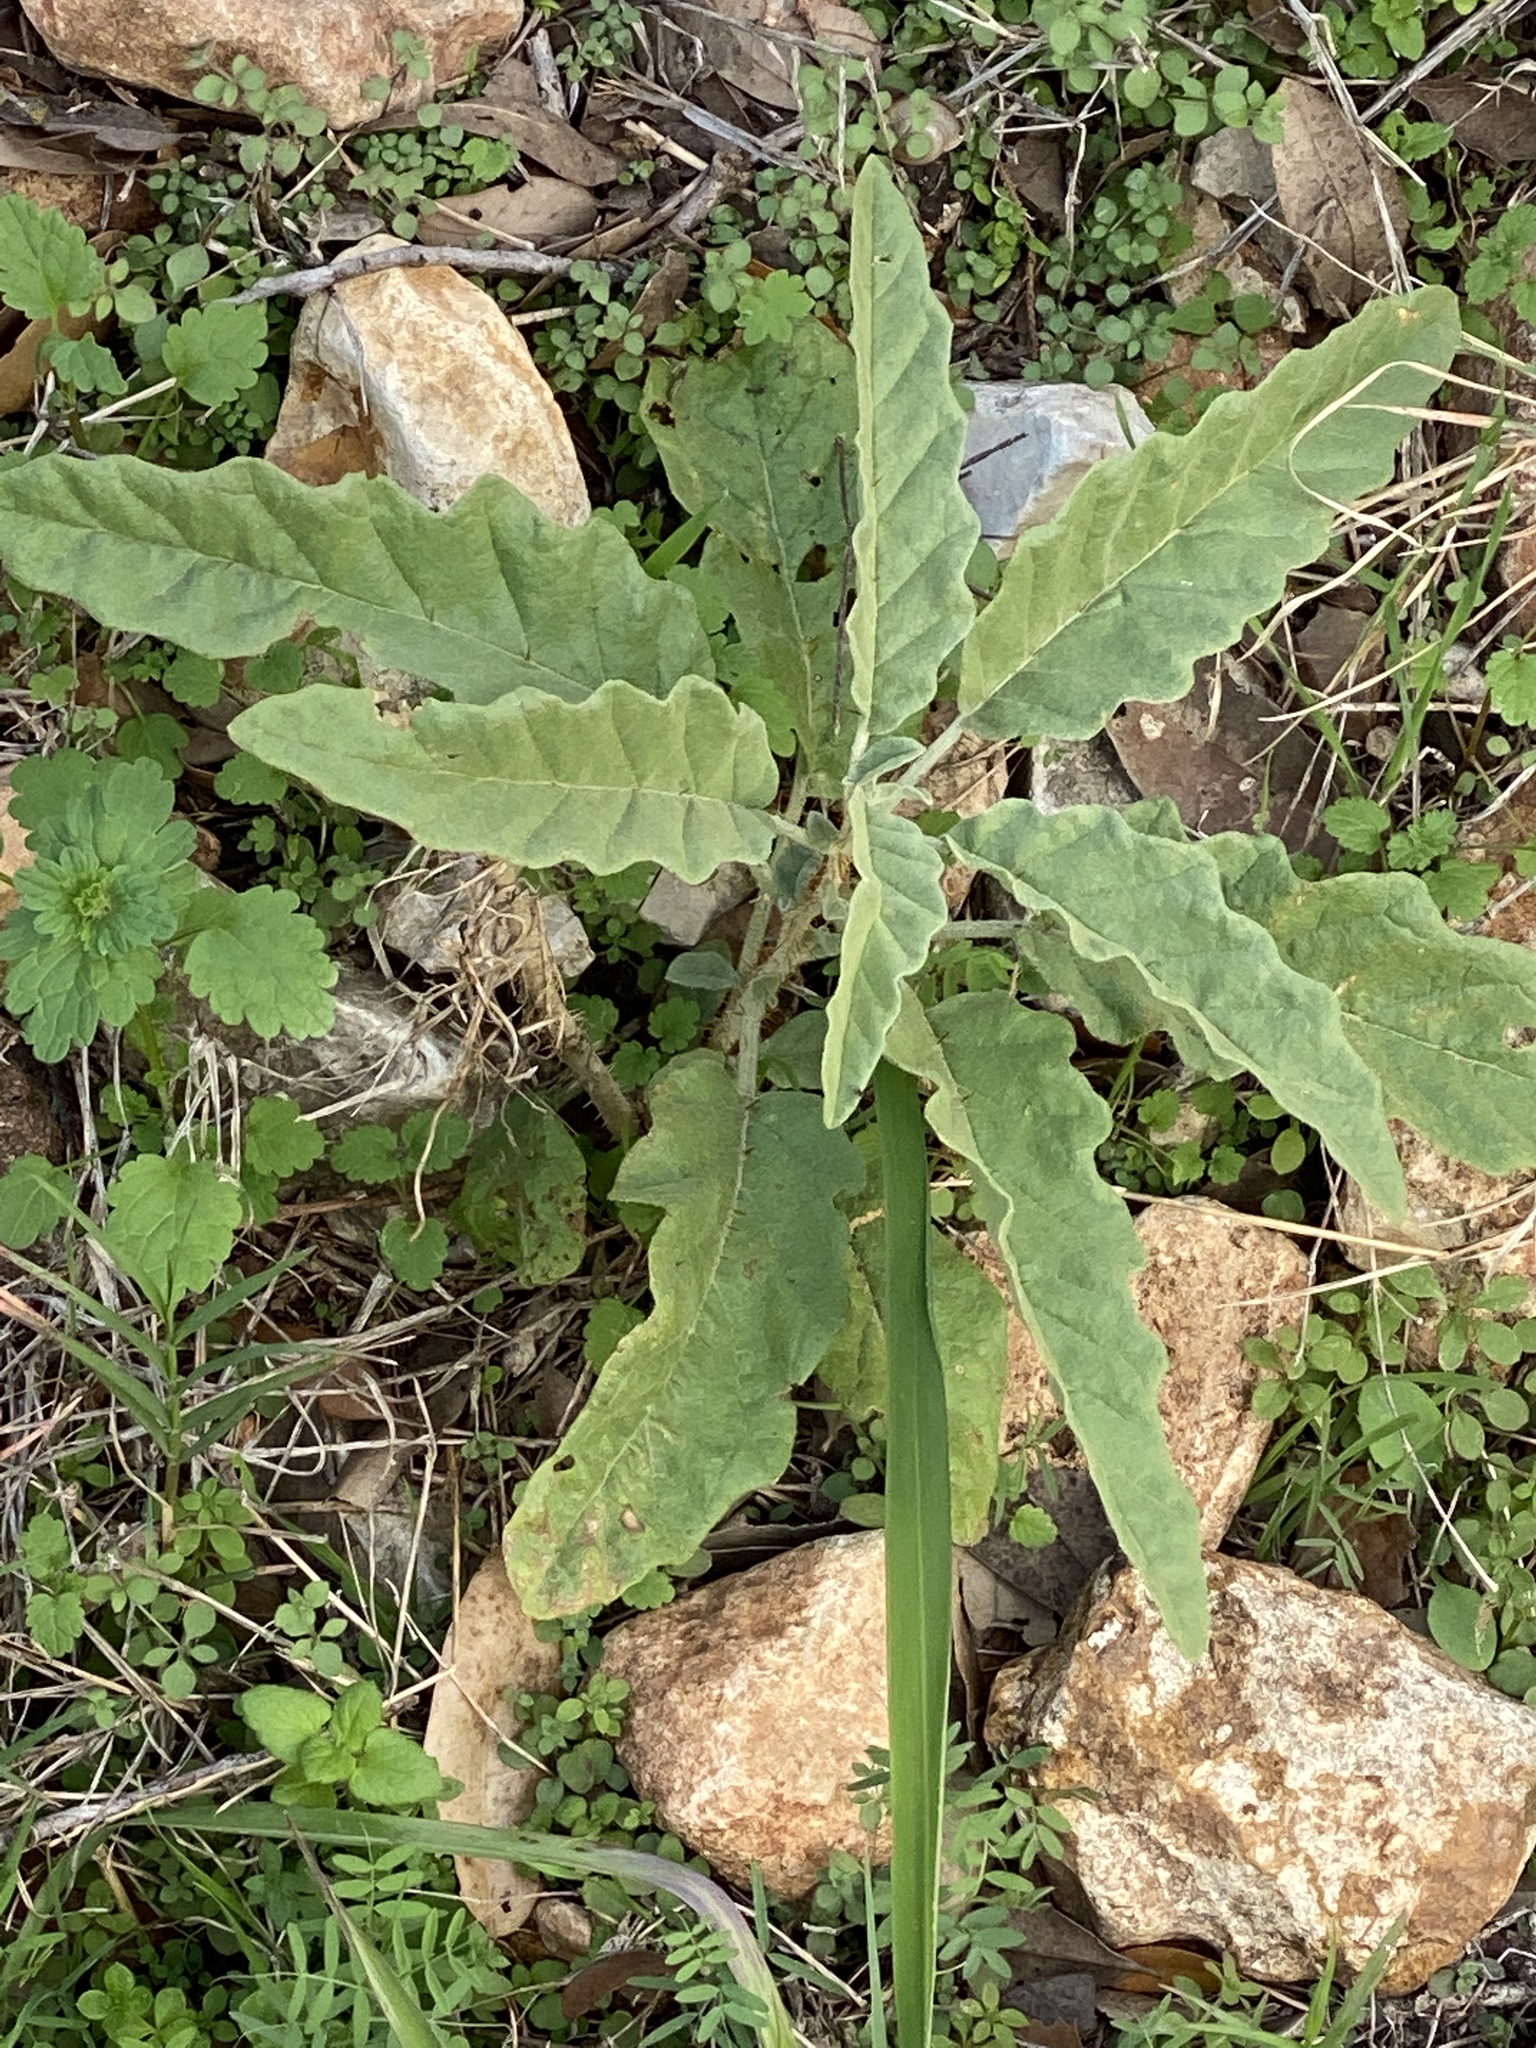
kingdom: Plantae
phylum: Tracheophyta
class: Magnoliopsida
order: Solanales
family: Solanaceae
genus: Solanum
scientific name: Solanum elaeagnifolium
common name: Silverleaf nightshade
